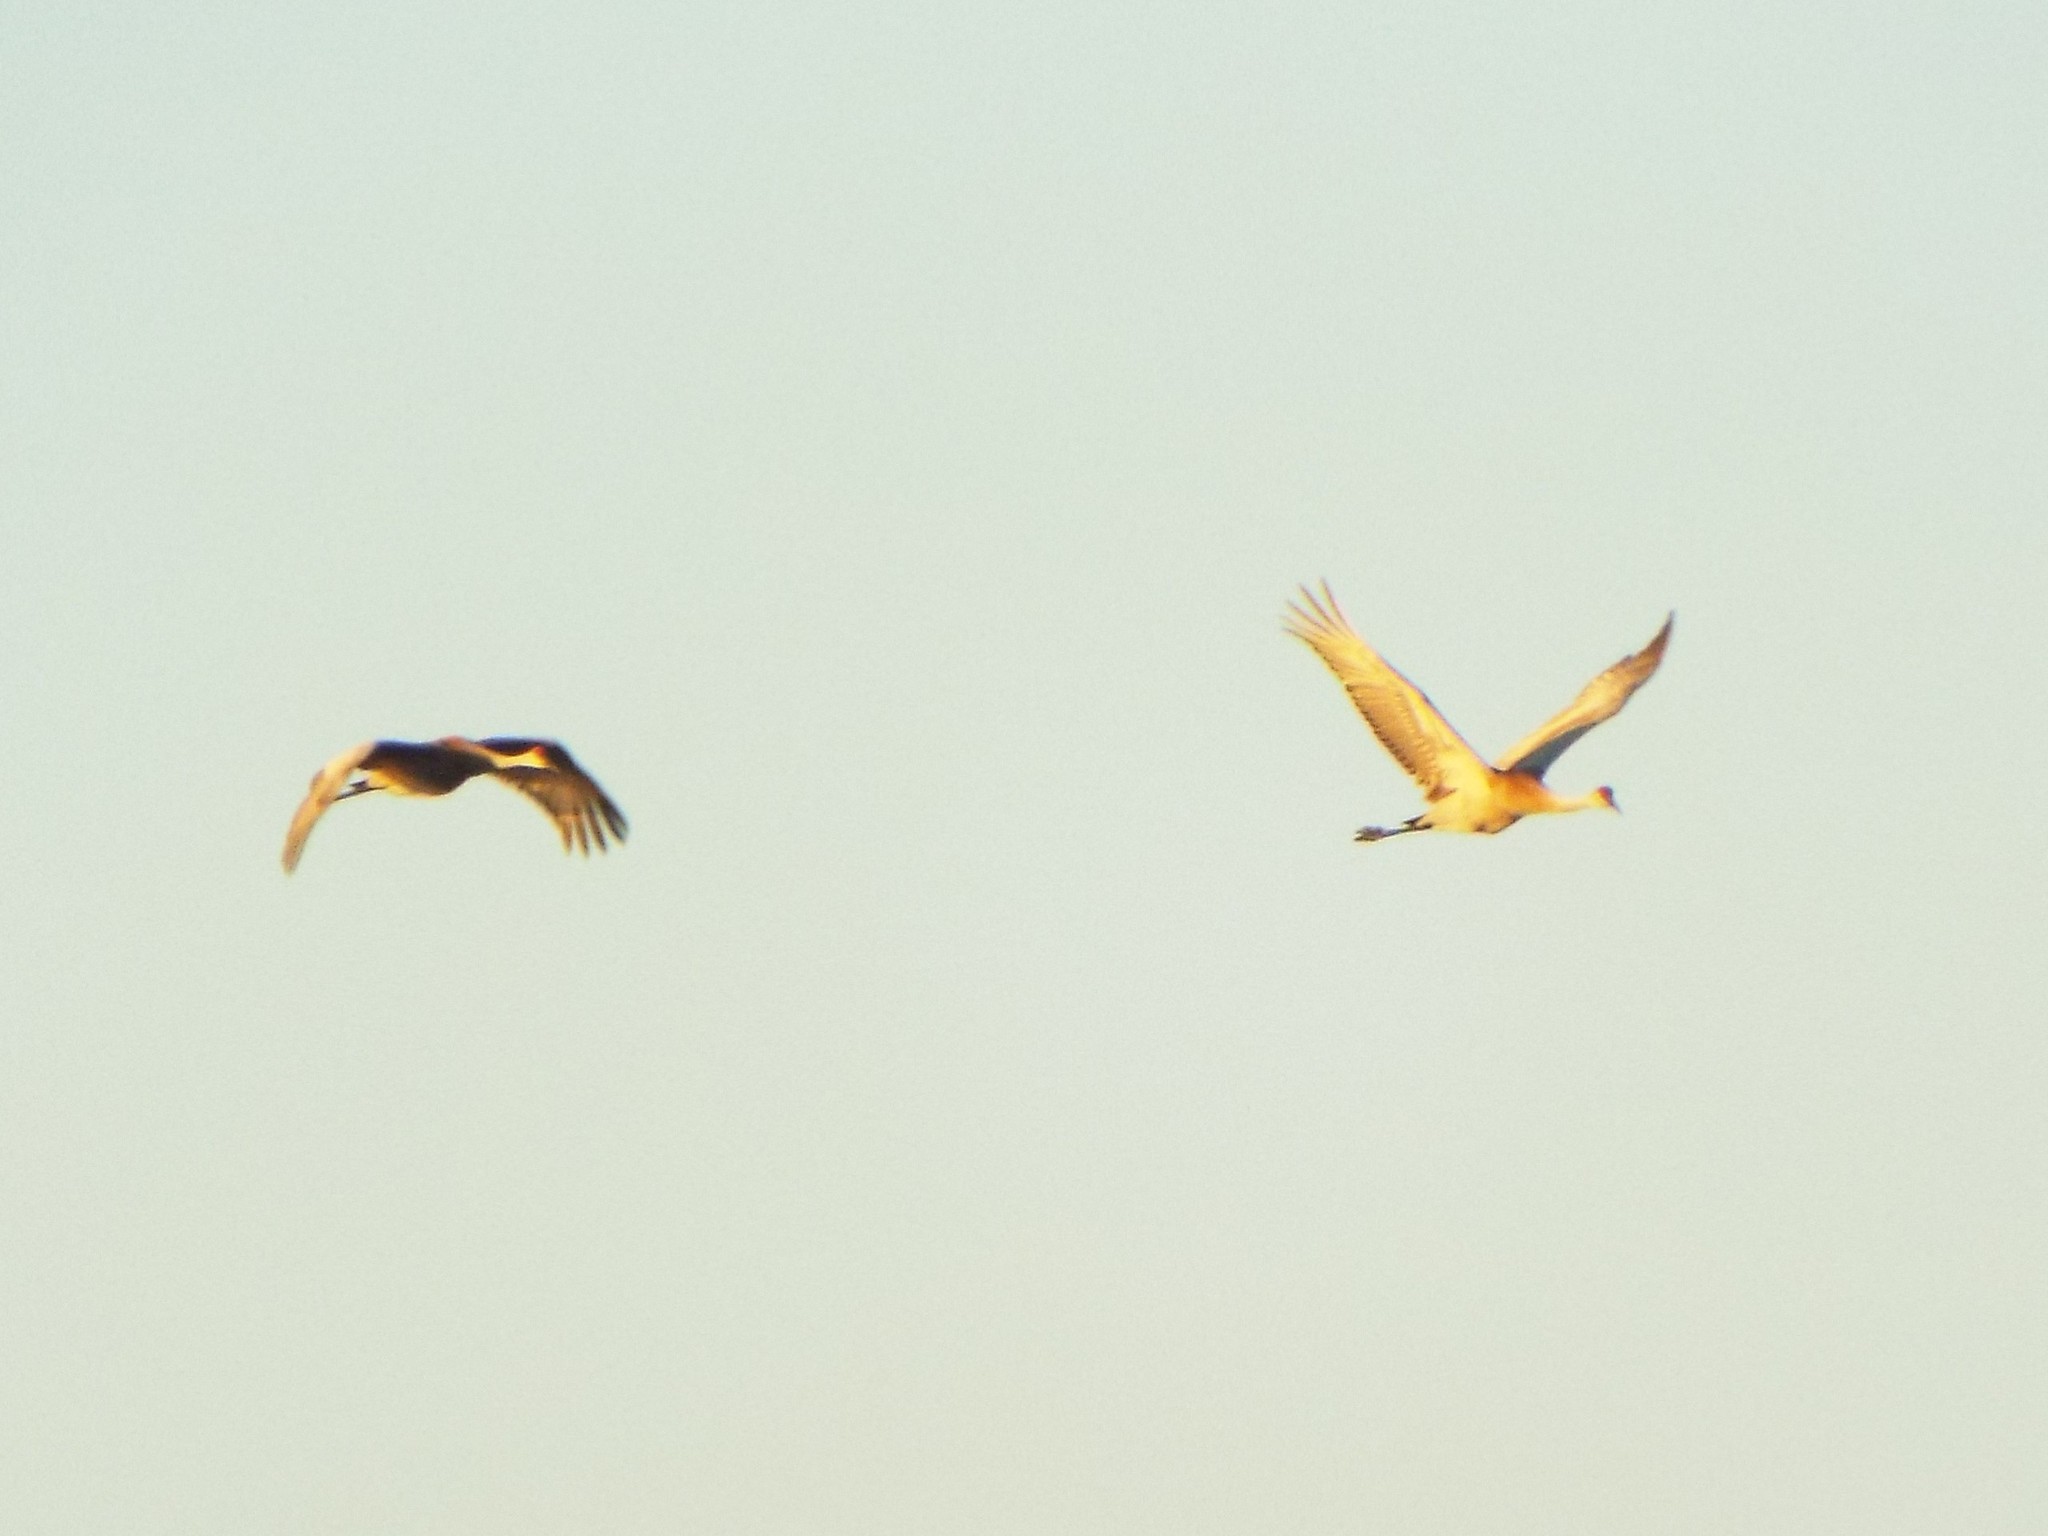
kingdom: Animalia
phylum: Chordata
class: Aves
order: Gruiformes
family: Gruidae
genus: Grus
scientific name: Grus canadensis
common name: Sandhill crane
